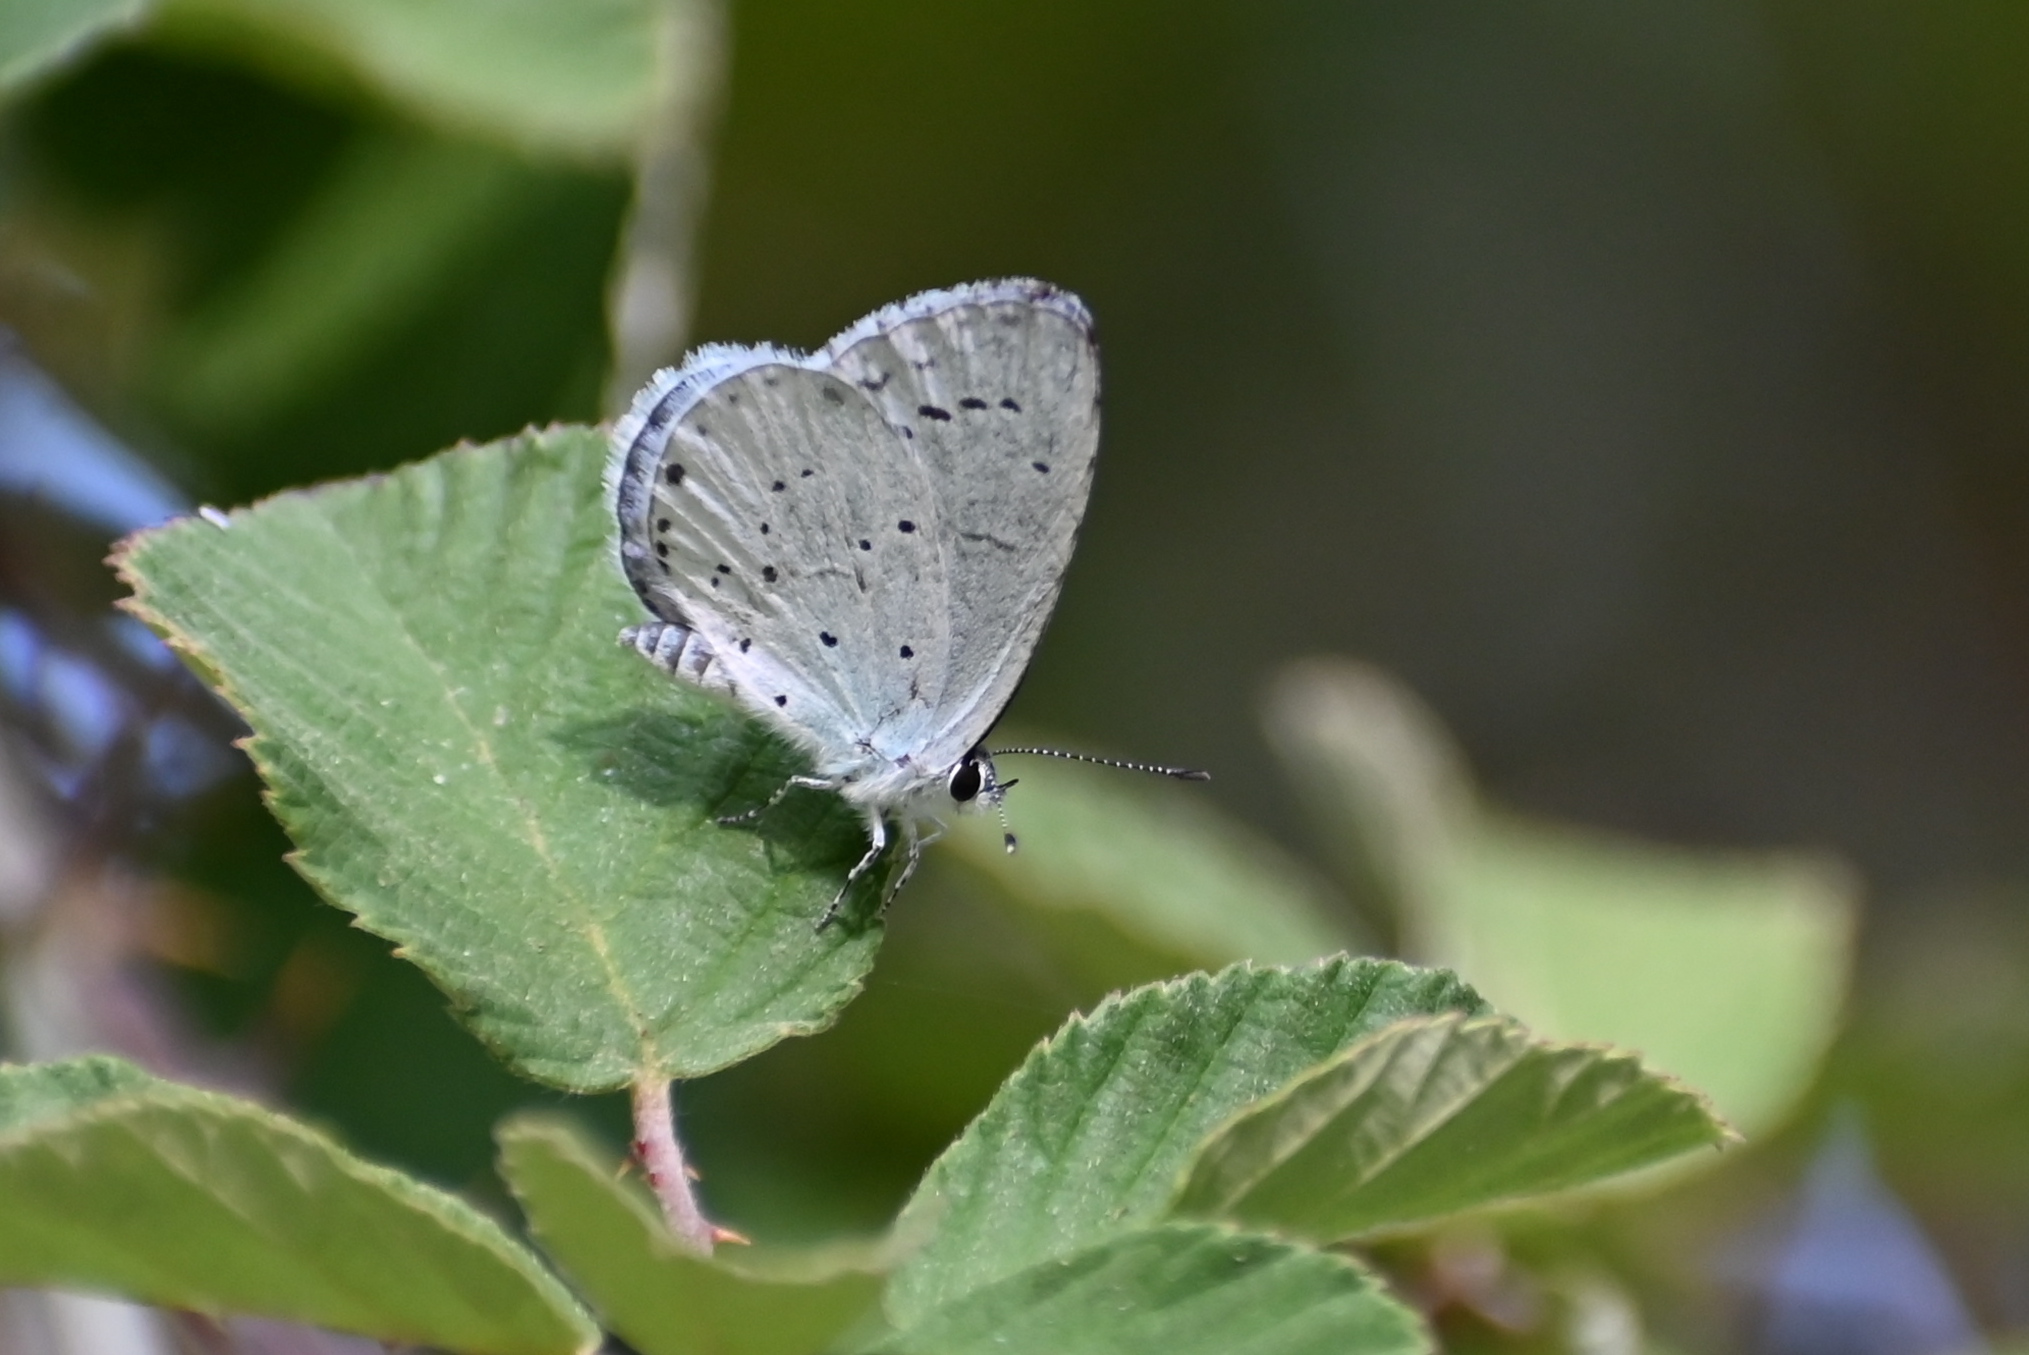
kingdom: Animalia
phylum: Arthropoda
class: Insecta
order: Lepidoptera
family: Lycaenidae
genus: Celastrina
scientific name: Celastrina argiolus
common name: Holly blue
